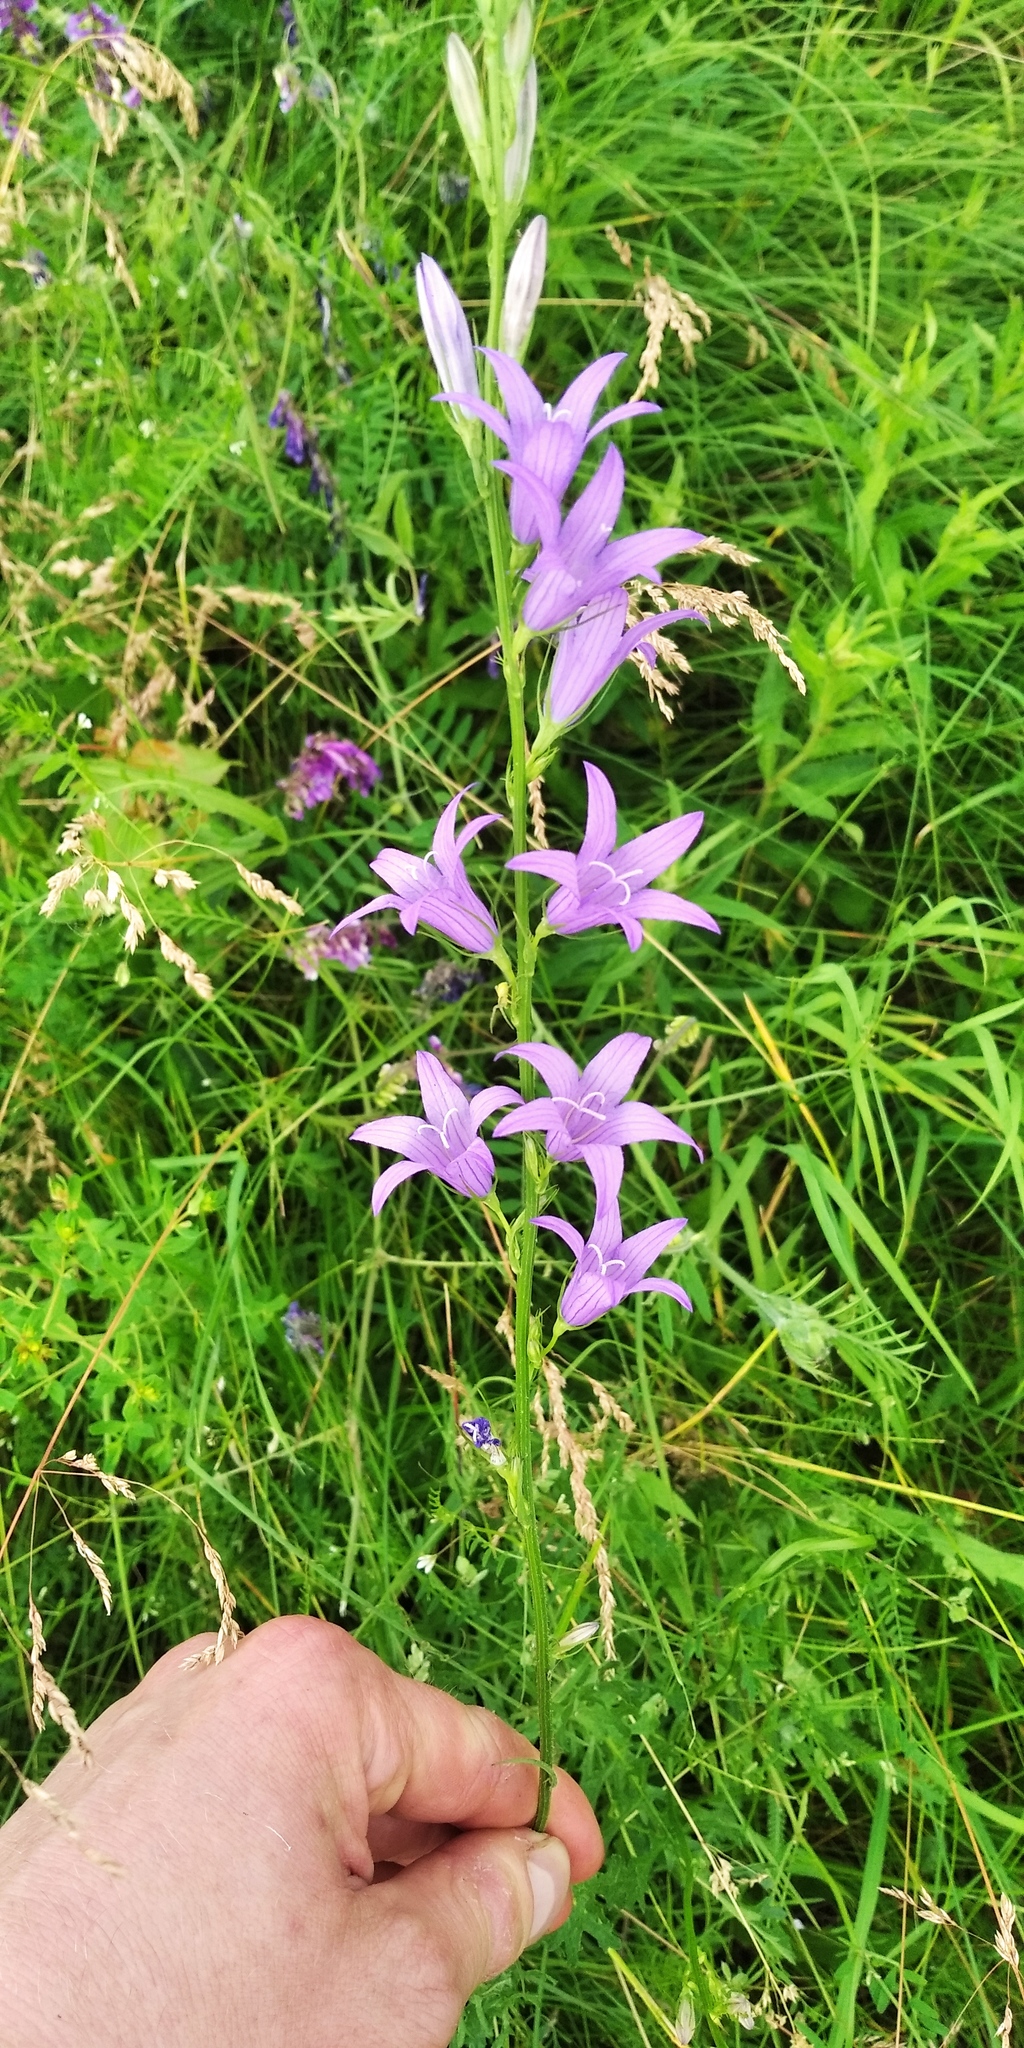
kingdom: Plantae
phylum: Tracheophyta
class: Magnoliopsida
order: Asterales
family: Campanulaceae
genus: Campanula
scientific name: Campanula rapunculus
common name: Rampion bellflower
